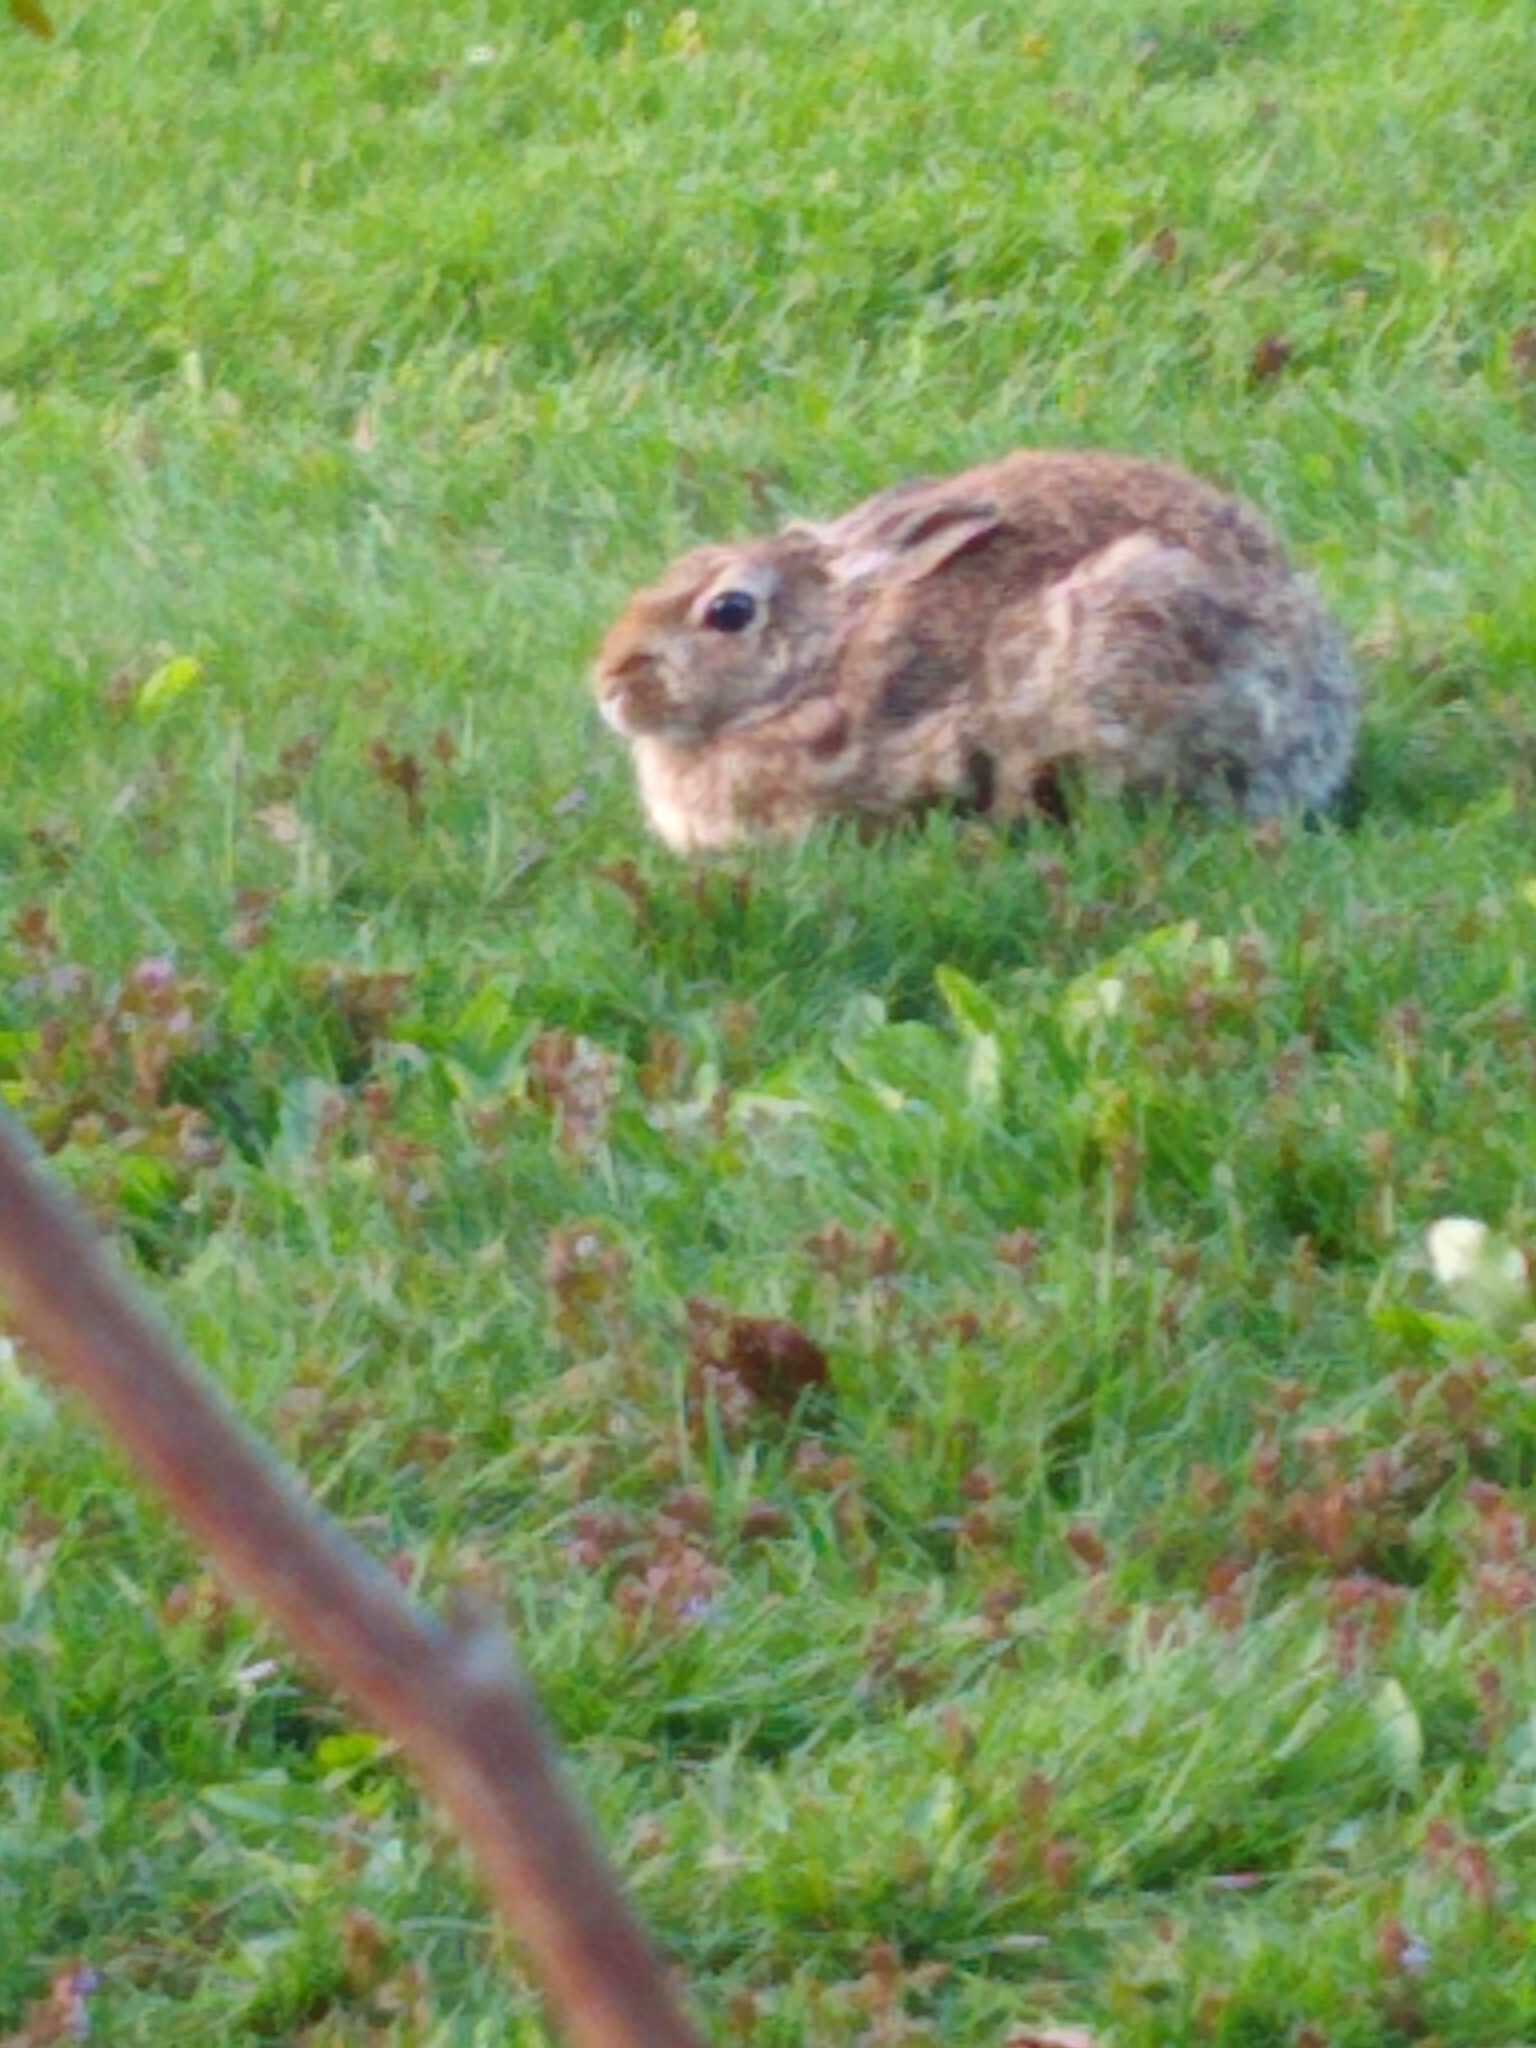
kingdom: Animalia
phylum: Chordata
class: Mammalia
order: Lagomorpha
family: Leporidae
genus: Sylvilagus
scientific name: Sylvilagus floridanus
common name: Eastern cottontail
